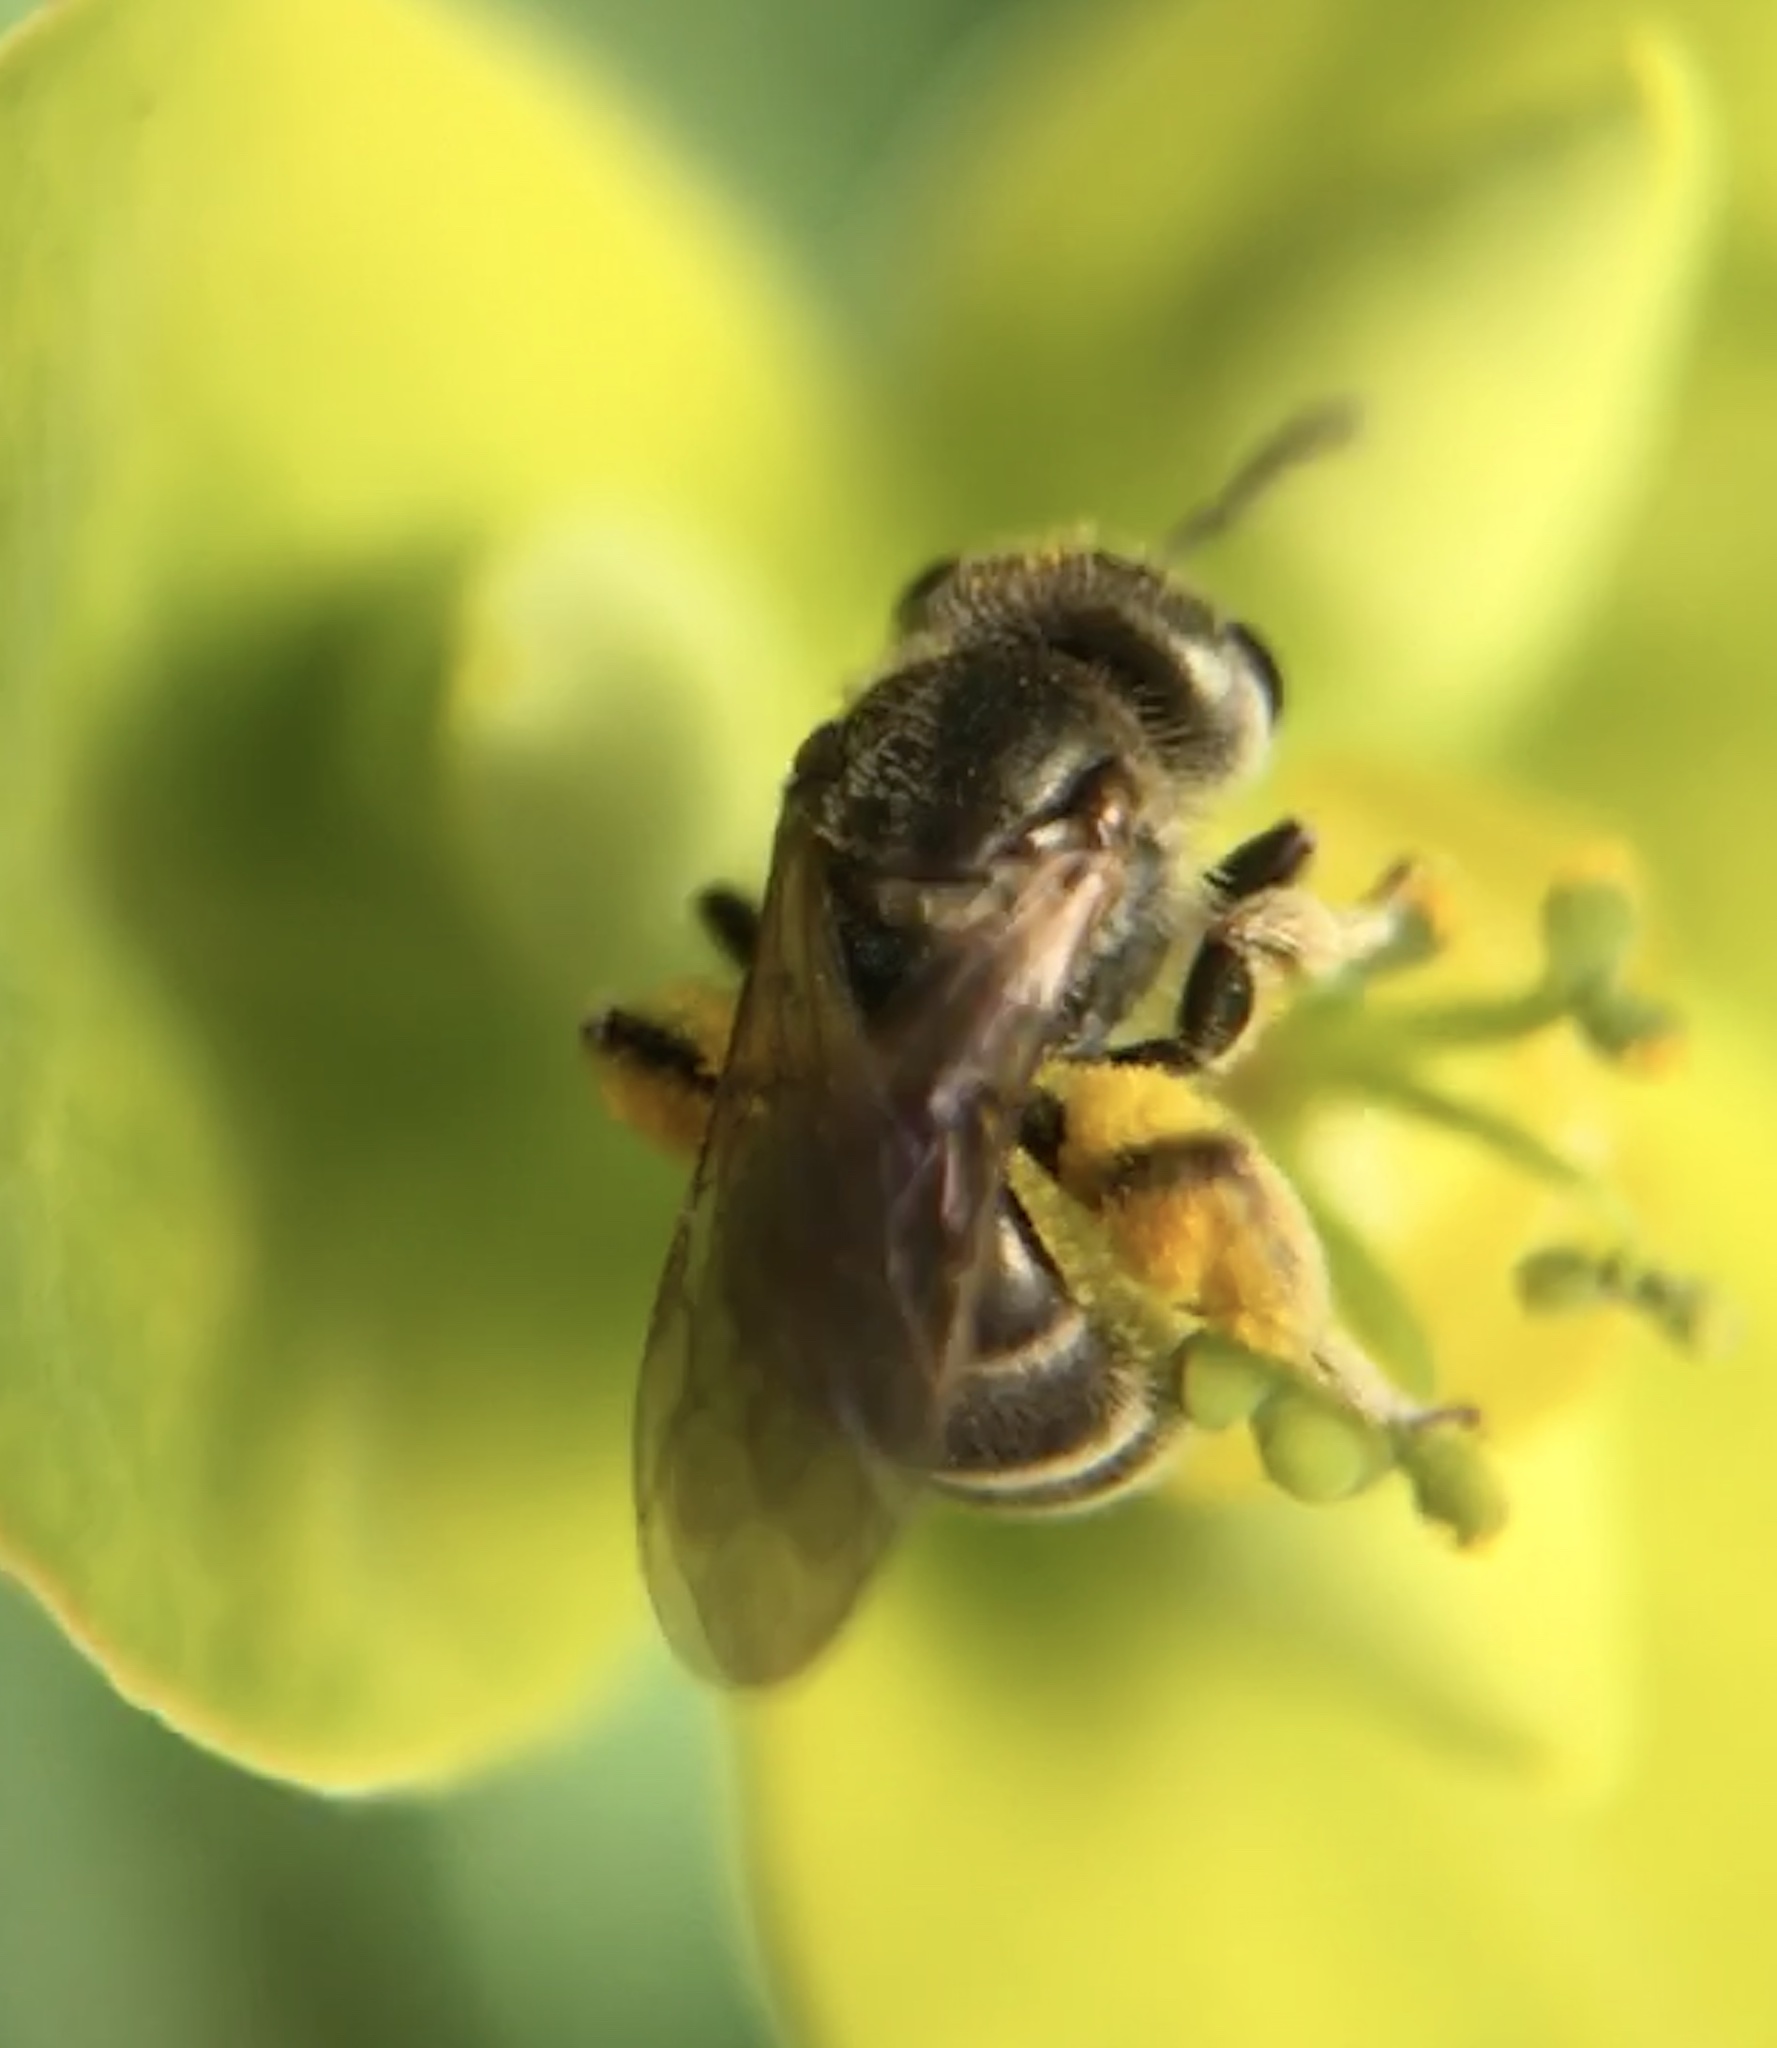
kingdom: Animalia
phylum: Arthropoda
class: Insecta
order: Hymenoptera
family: Halictidae
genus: Halictus
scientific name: Halictus tripartitus
